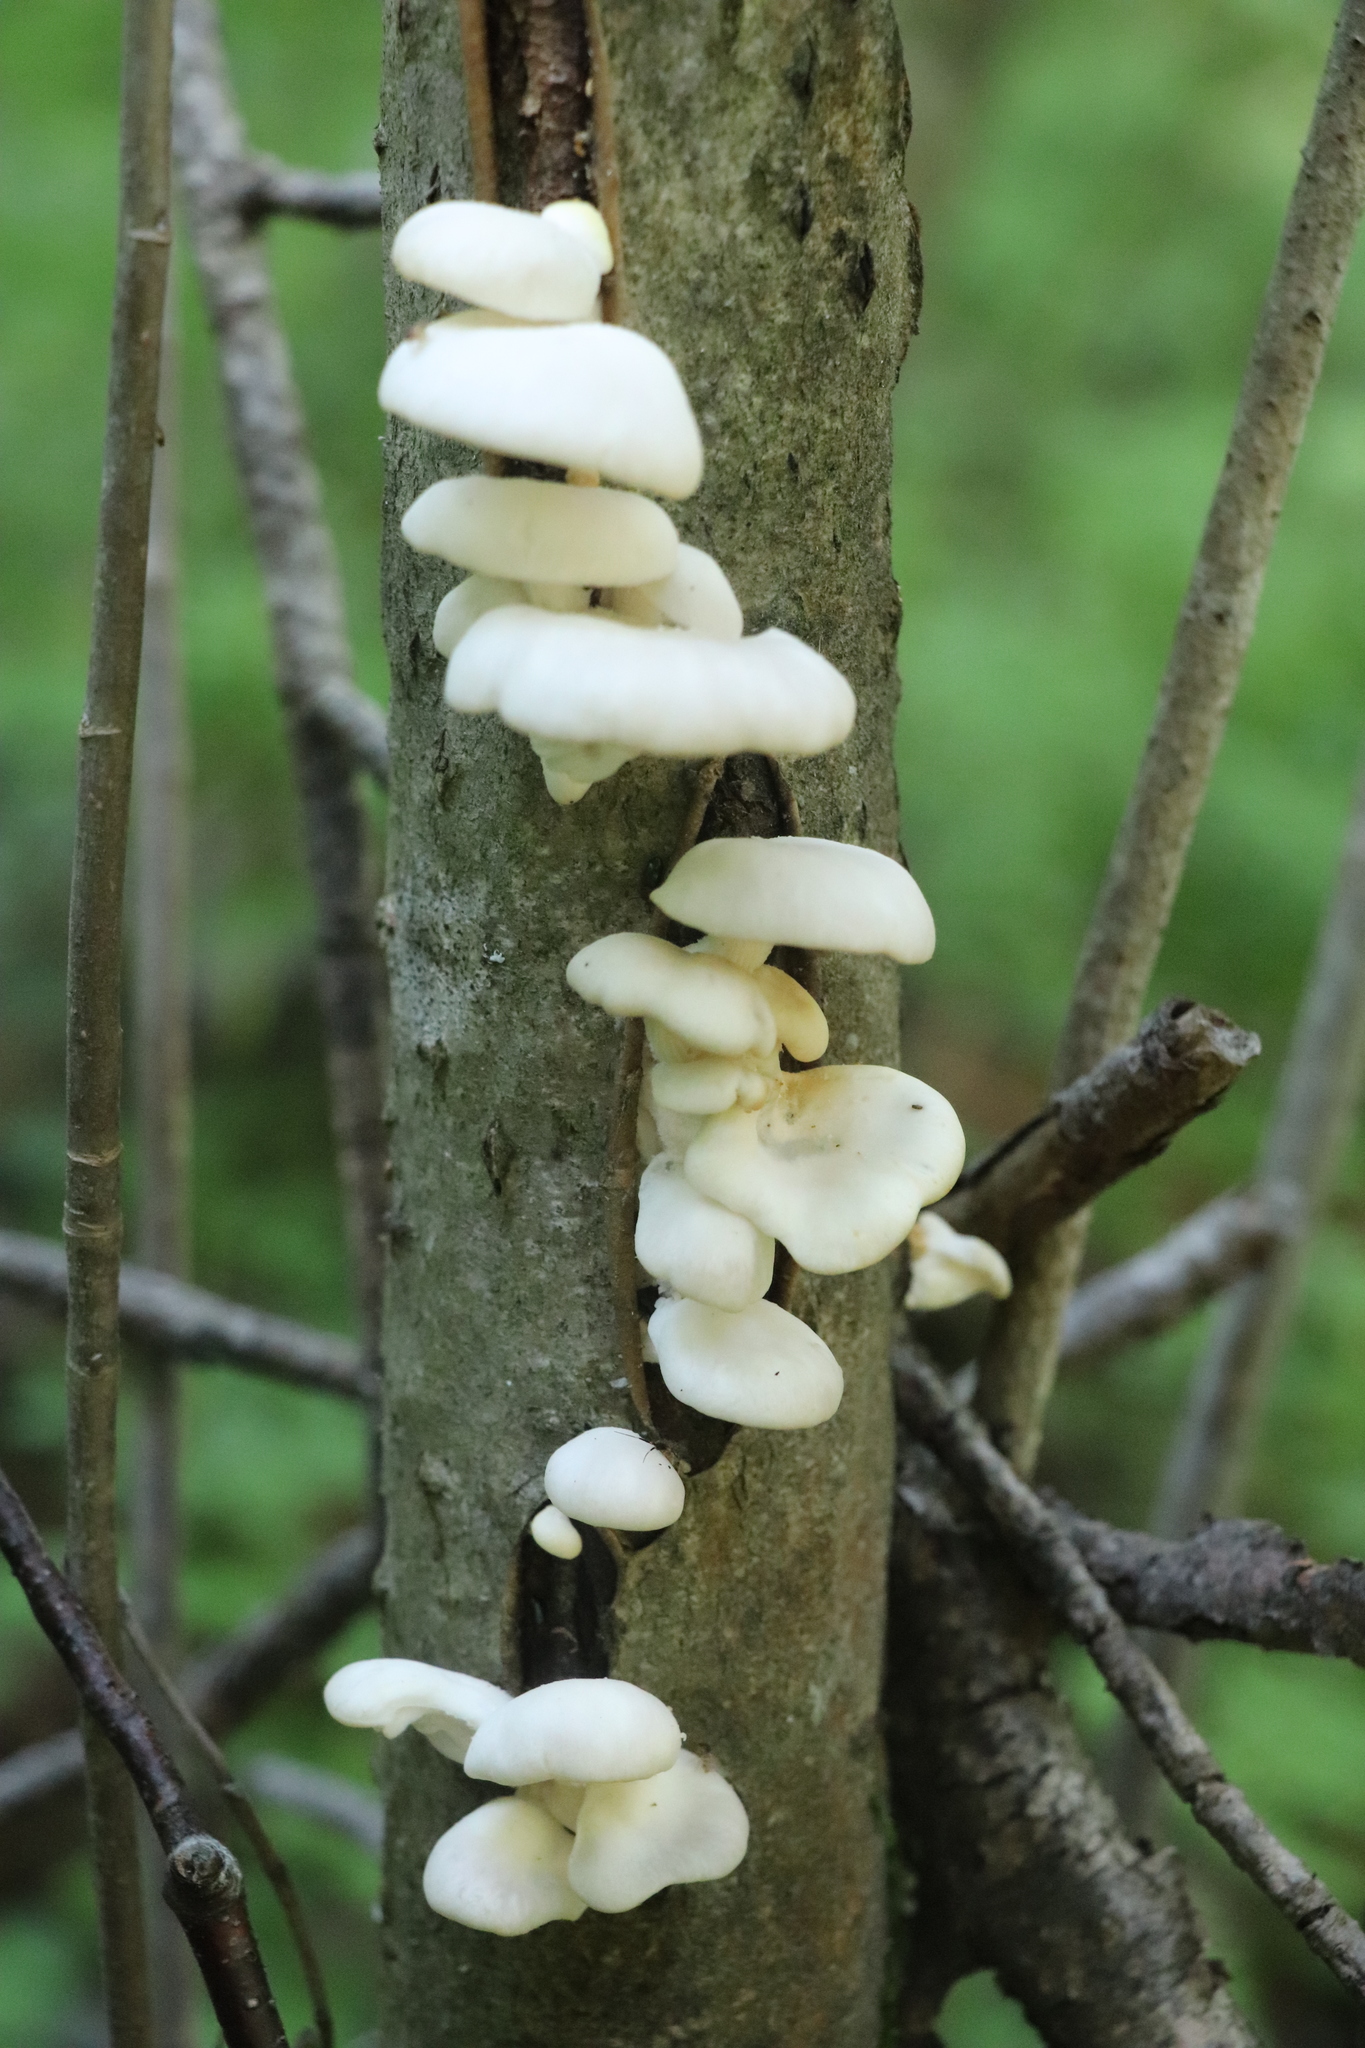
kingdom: Fungi
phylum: Basidiomycota
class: Agaricomycetes
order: Agaricales
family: Pleurotaceae
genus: Pleurotus
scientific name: Pleurotus pulmonarius
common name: Pale oyster
